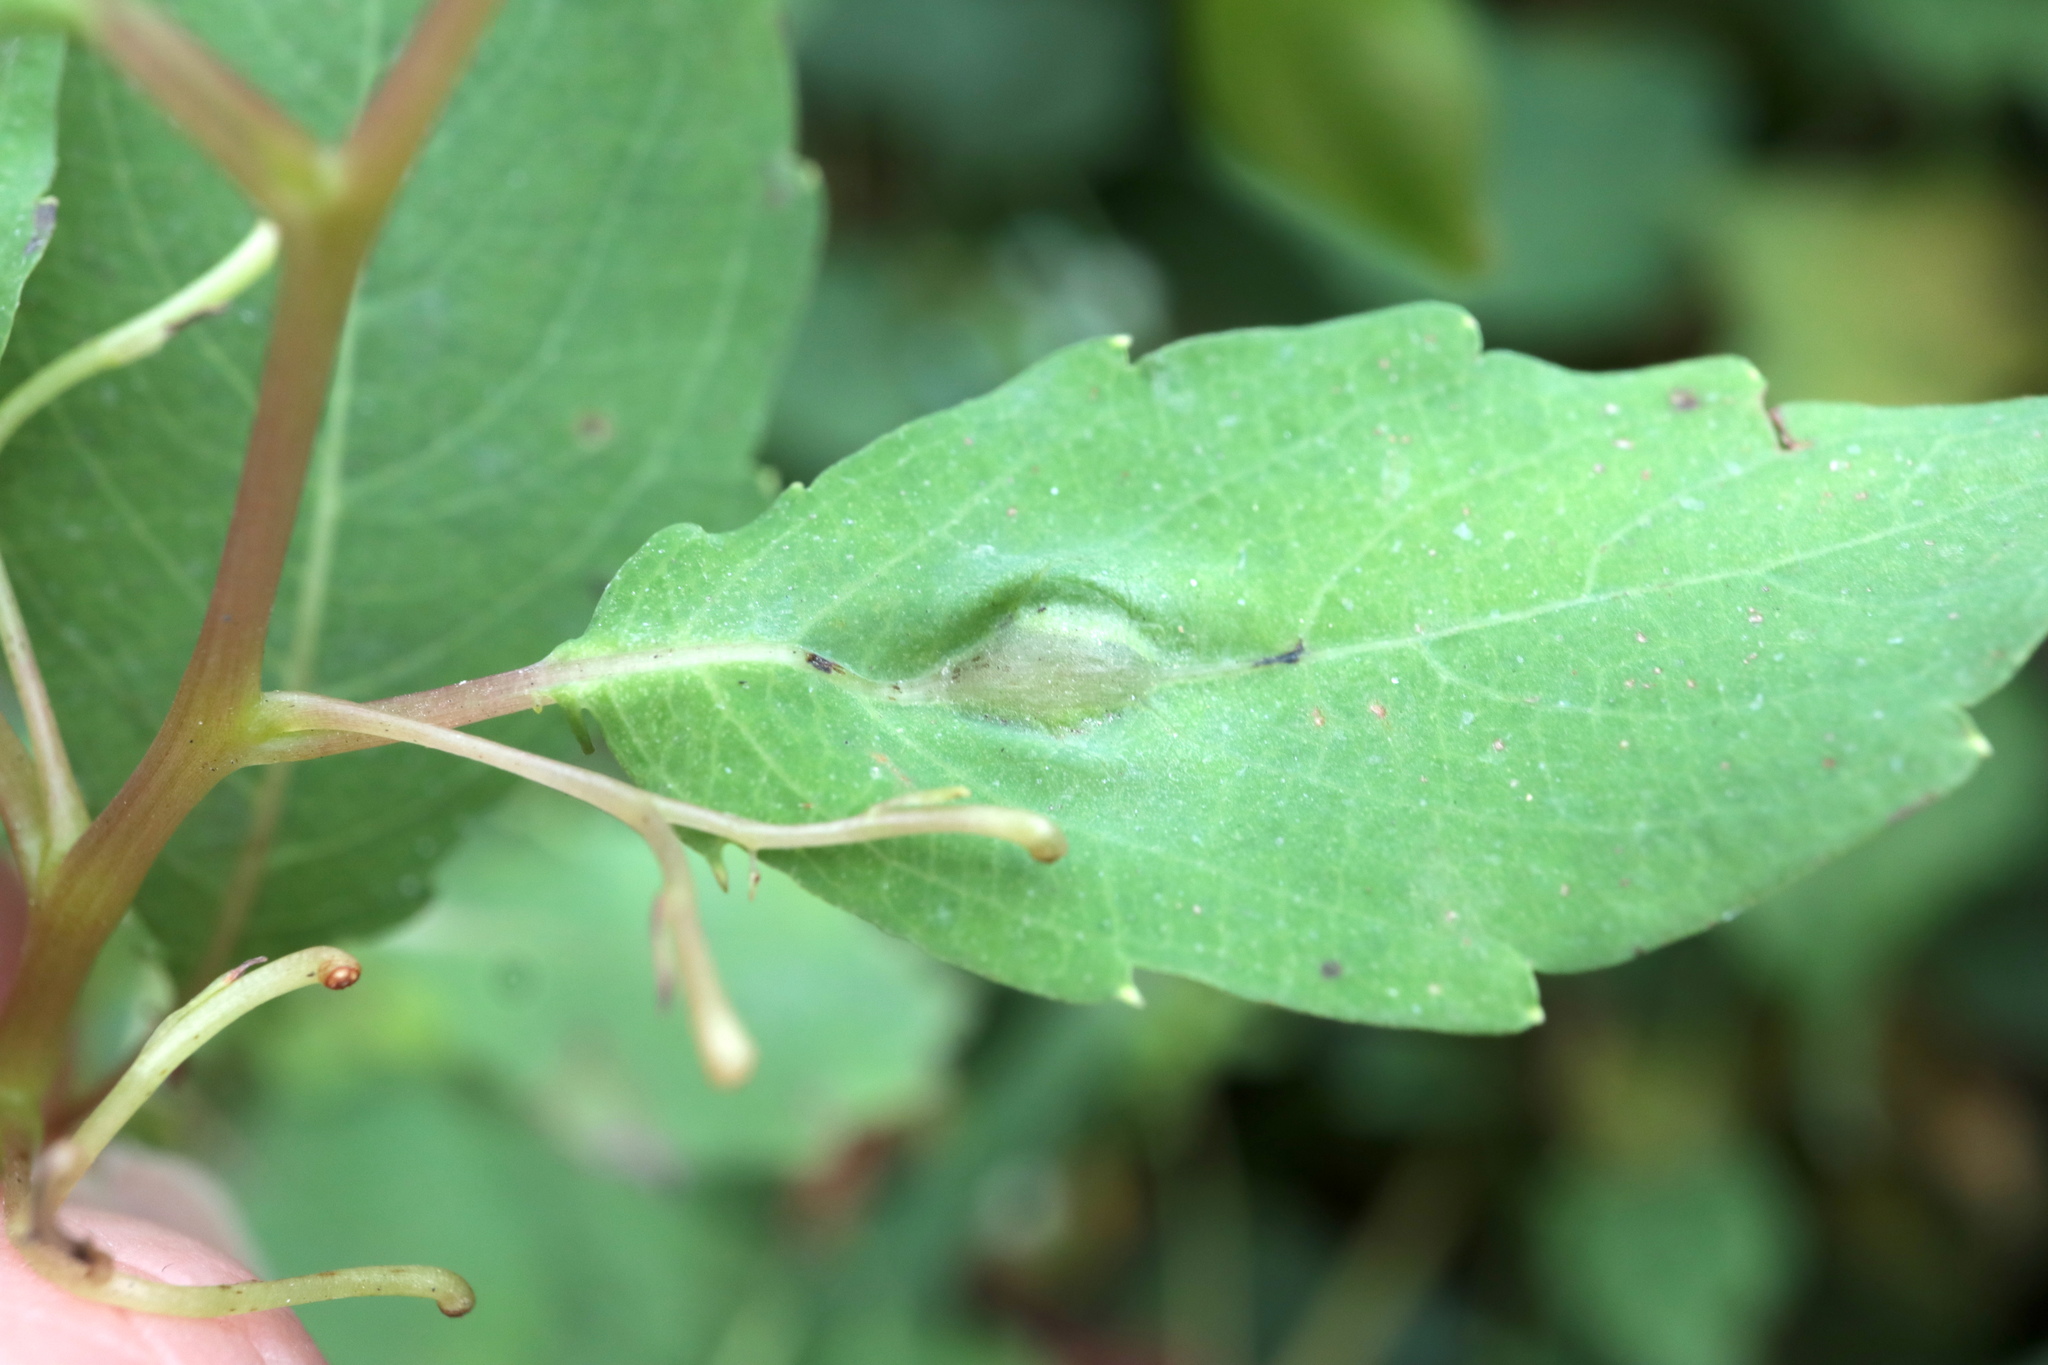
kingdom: Animalia
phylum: Arthropoda
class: Insecta
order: Diptera
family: Cecidomyiidae
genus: Neolasioptera
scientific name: Neolasioptera impatientifolia
